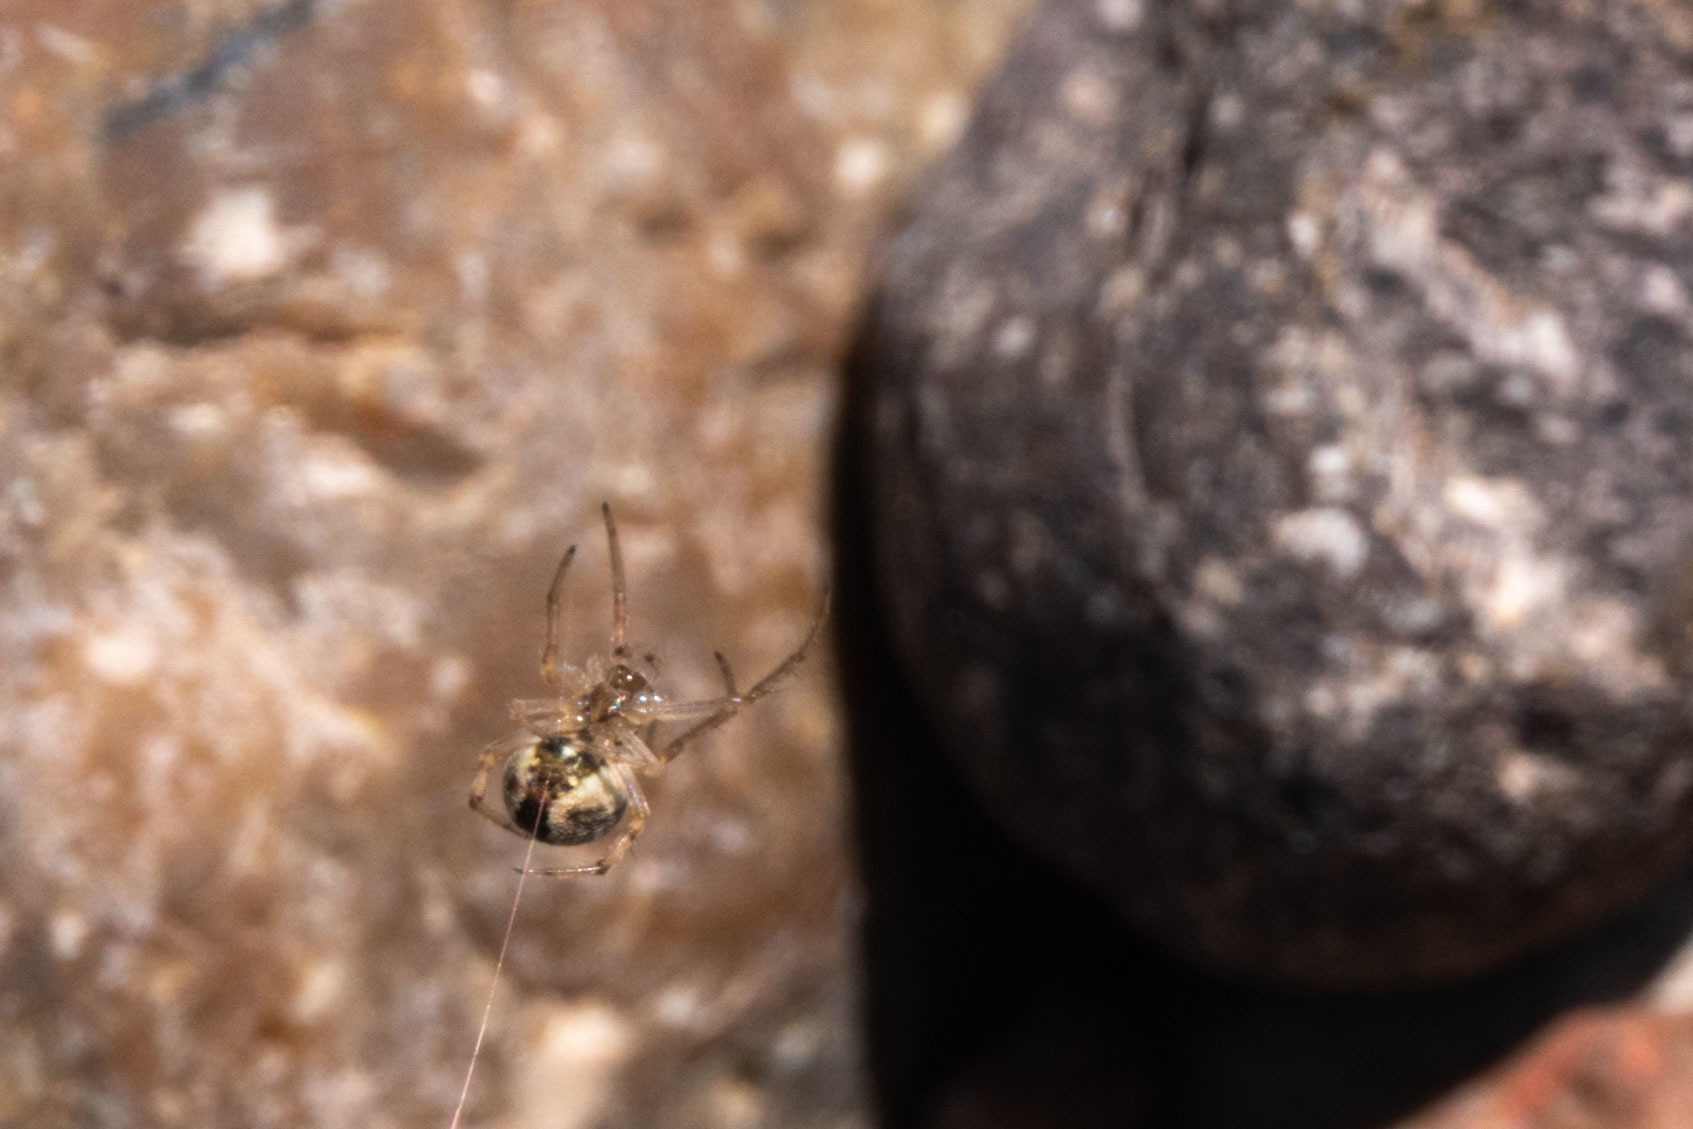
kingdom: Animalia
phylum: Arthropoda
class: Arachnida
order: Araneae
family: Araneidae
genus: Metepeira
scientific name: Metepeira
